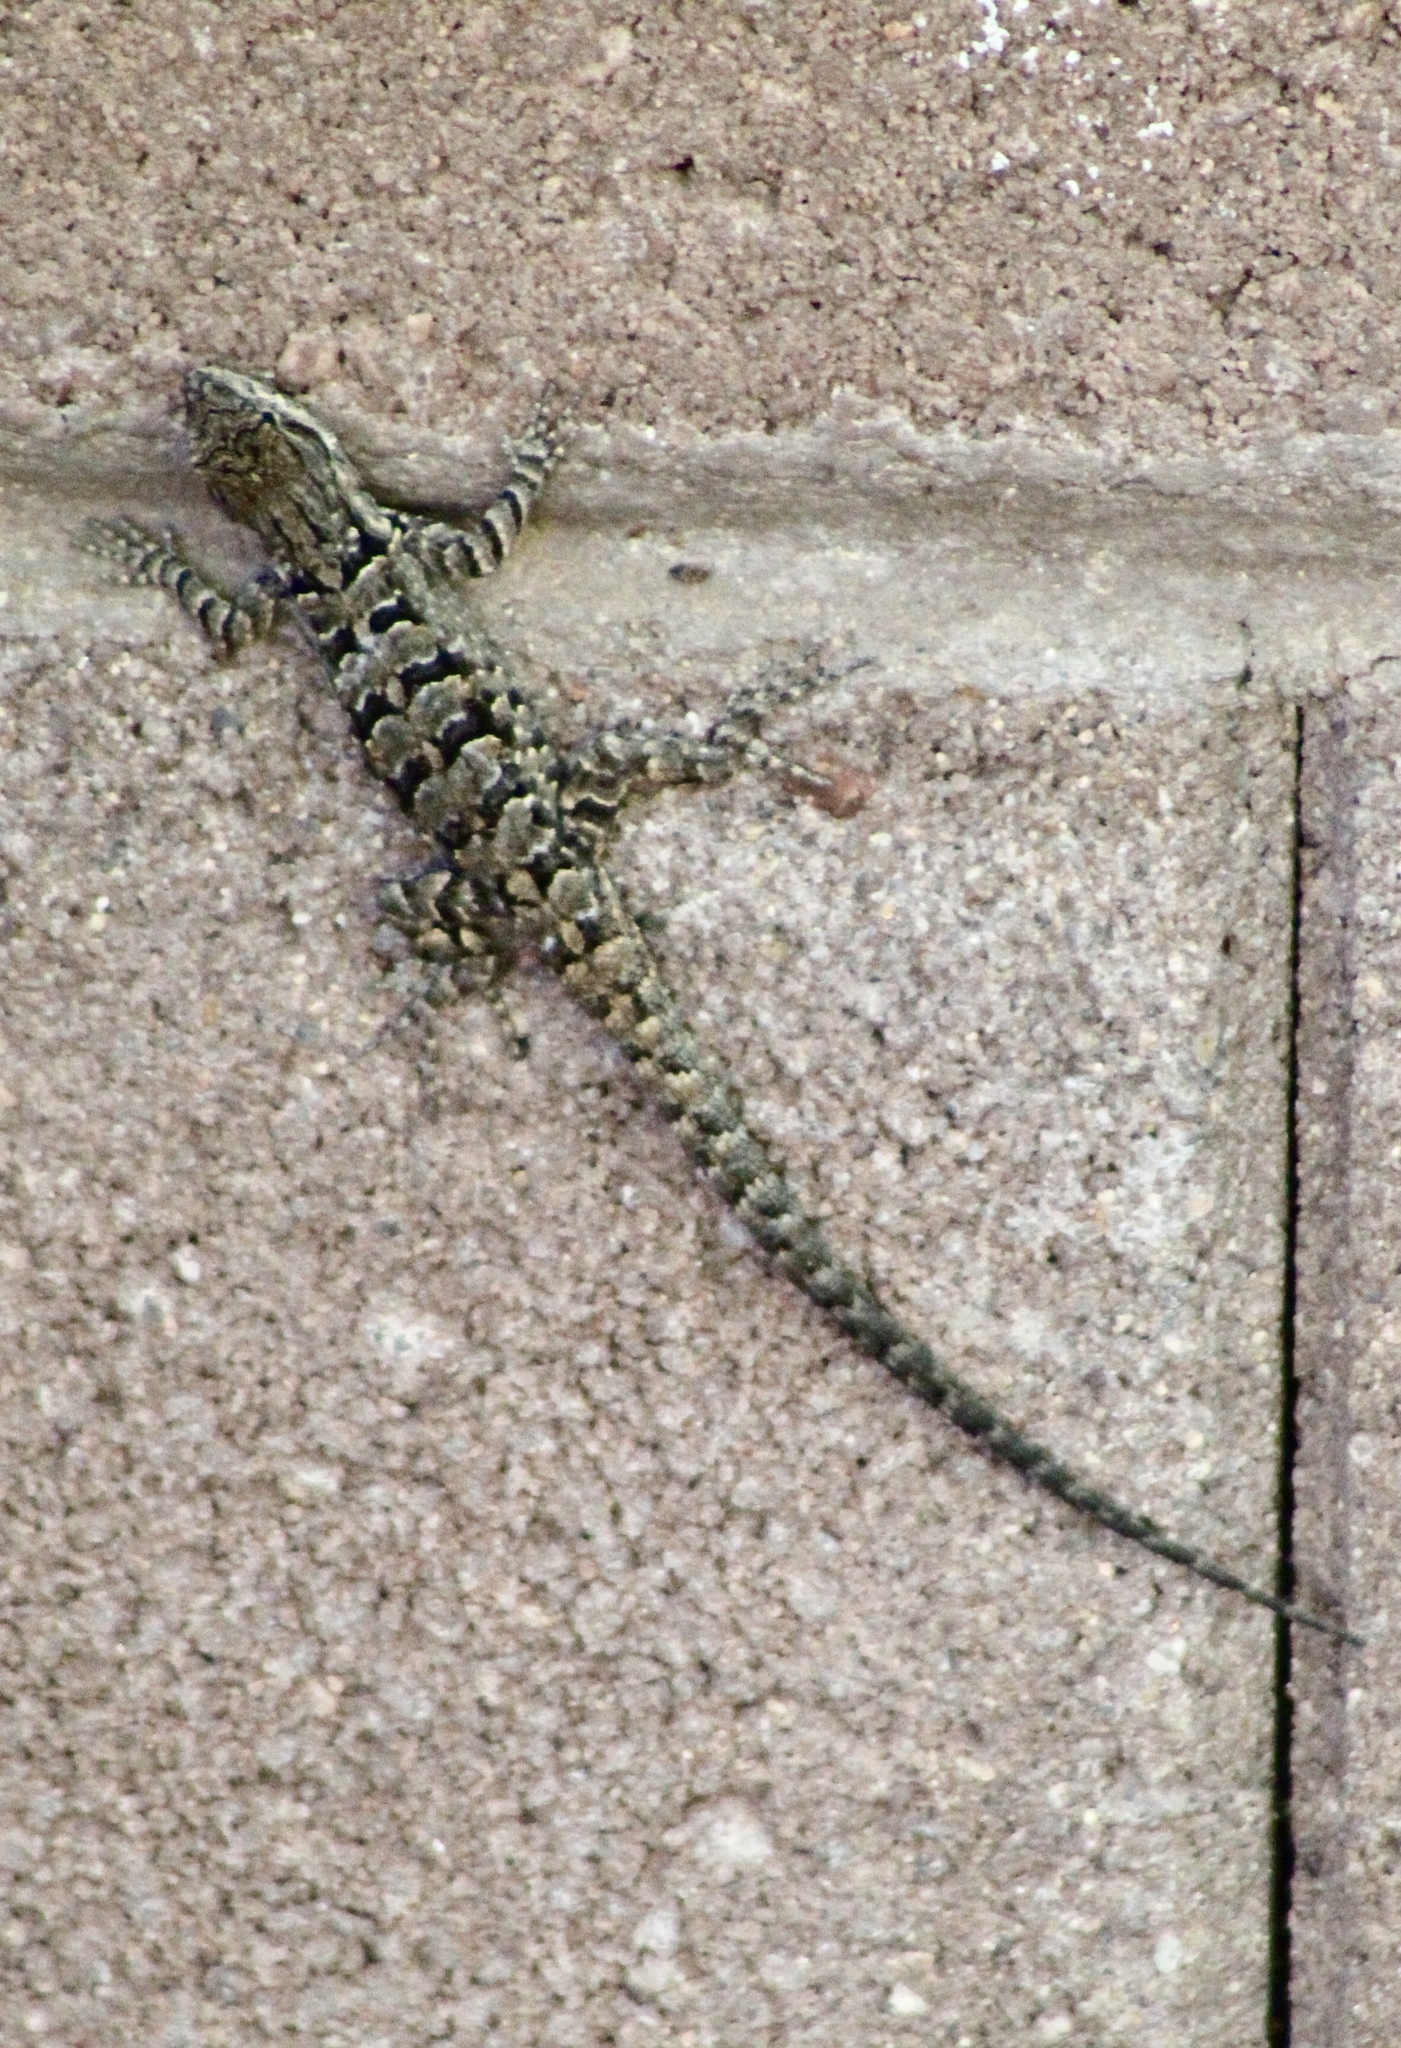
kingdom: Animalia
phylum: Chordata
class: Squamata
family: Phrynosomatidae
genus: Urosaurus
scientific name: Urosaurus ornatus
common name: Ornate tree lizard
